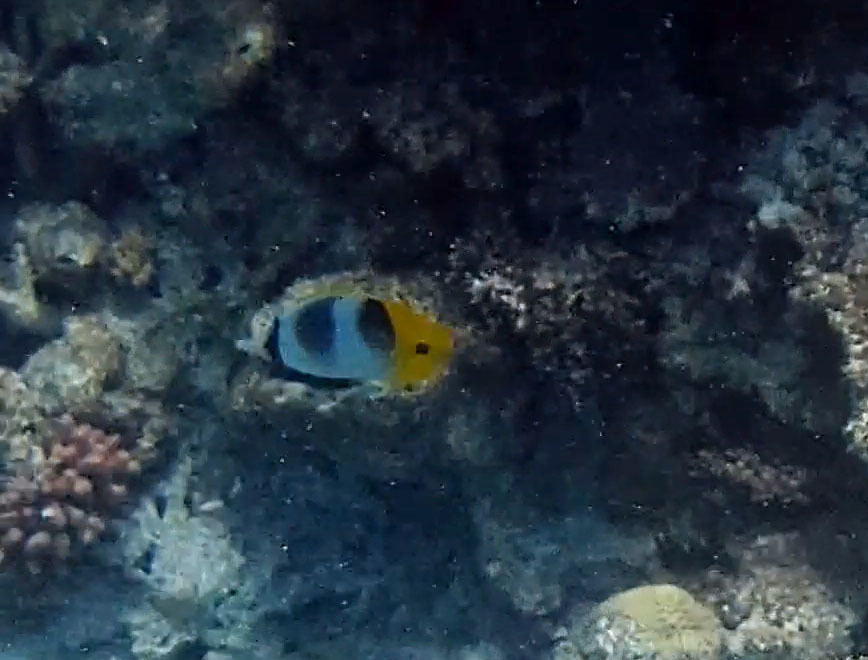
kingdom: Animalia
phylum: Chordata
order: Perciformes
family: Chaetodontidae
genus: Chaetodon
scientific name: Chaetodon ulietensis
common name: Pacific double-saddle butterflyfish
